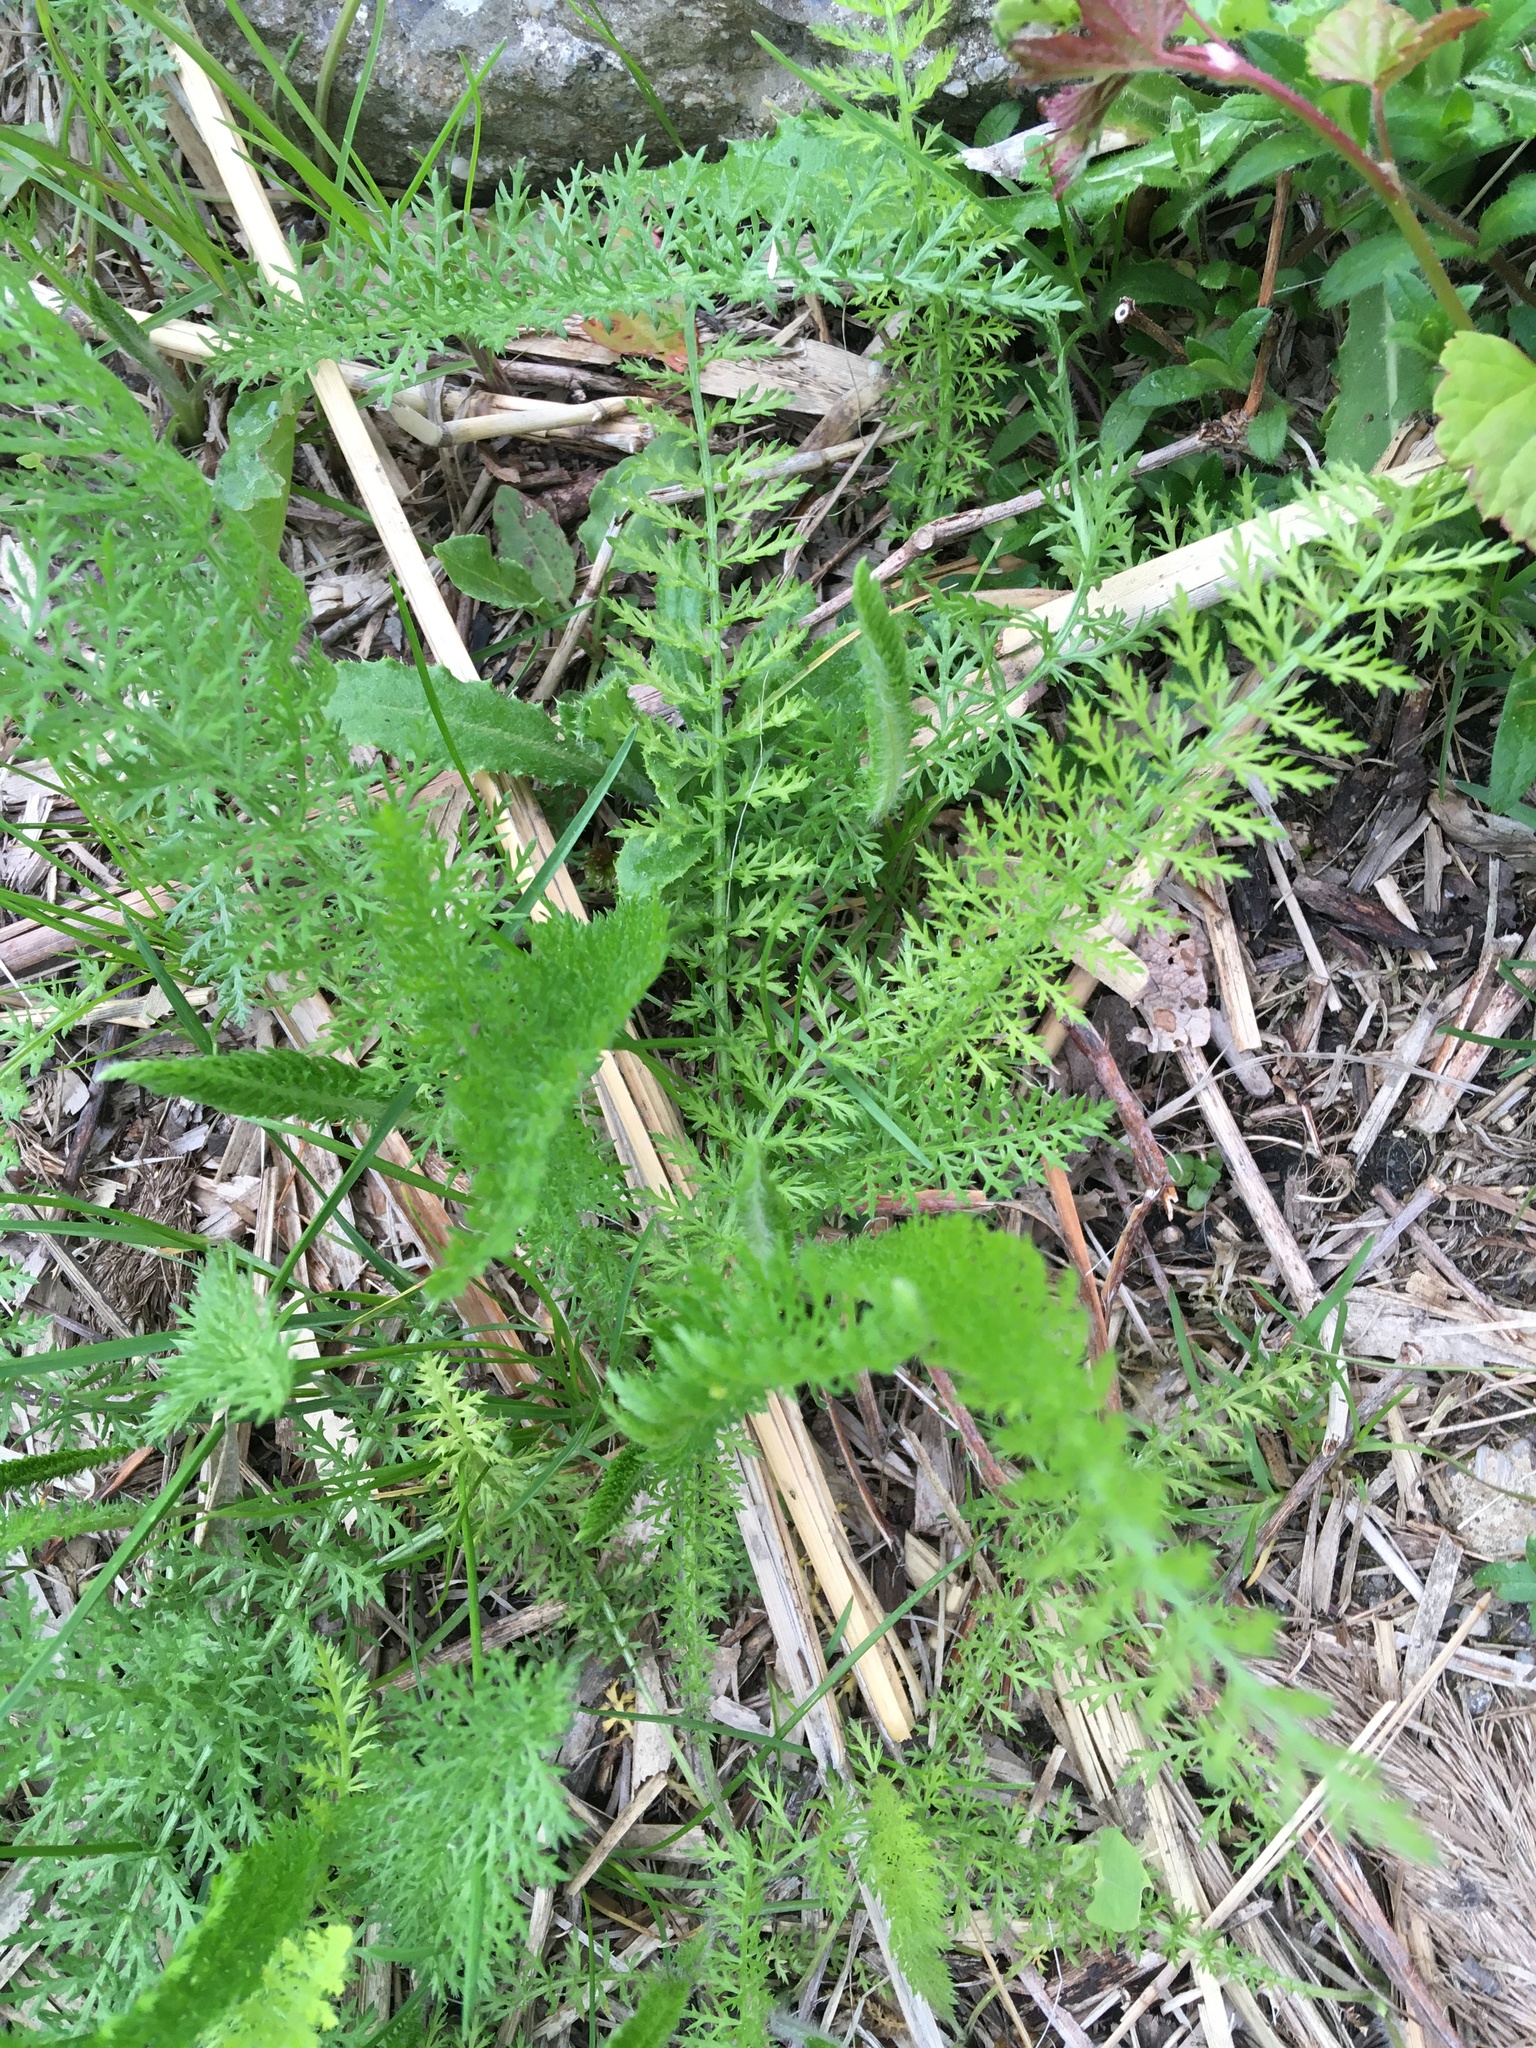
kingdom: Plantae
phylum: Tracheophyta
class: Magnoliopsida
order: Asterales
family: Asteraceae
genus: Achillea
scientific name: Achillea millefolium
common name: Yarrow
